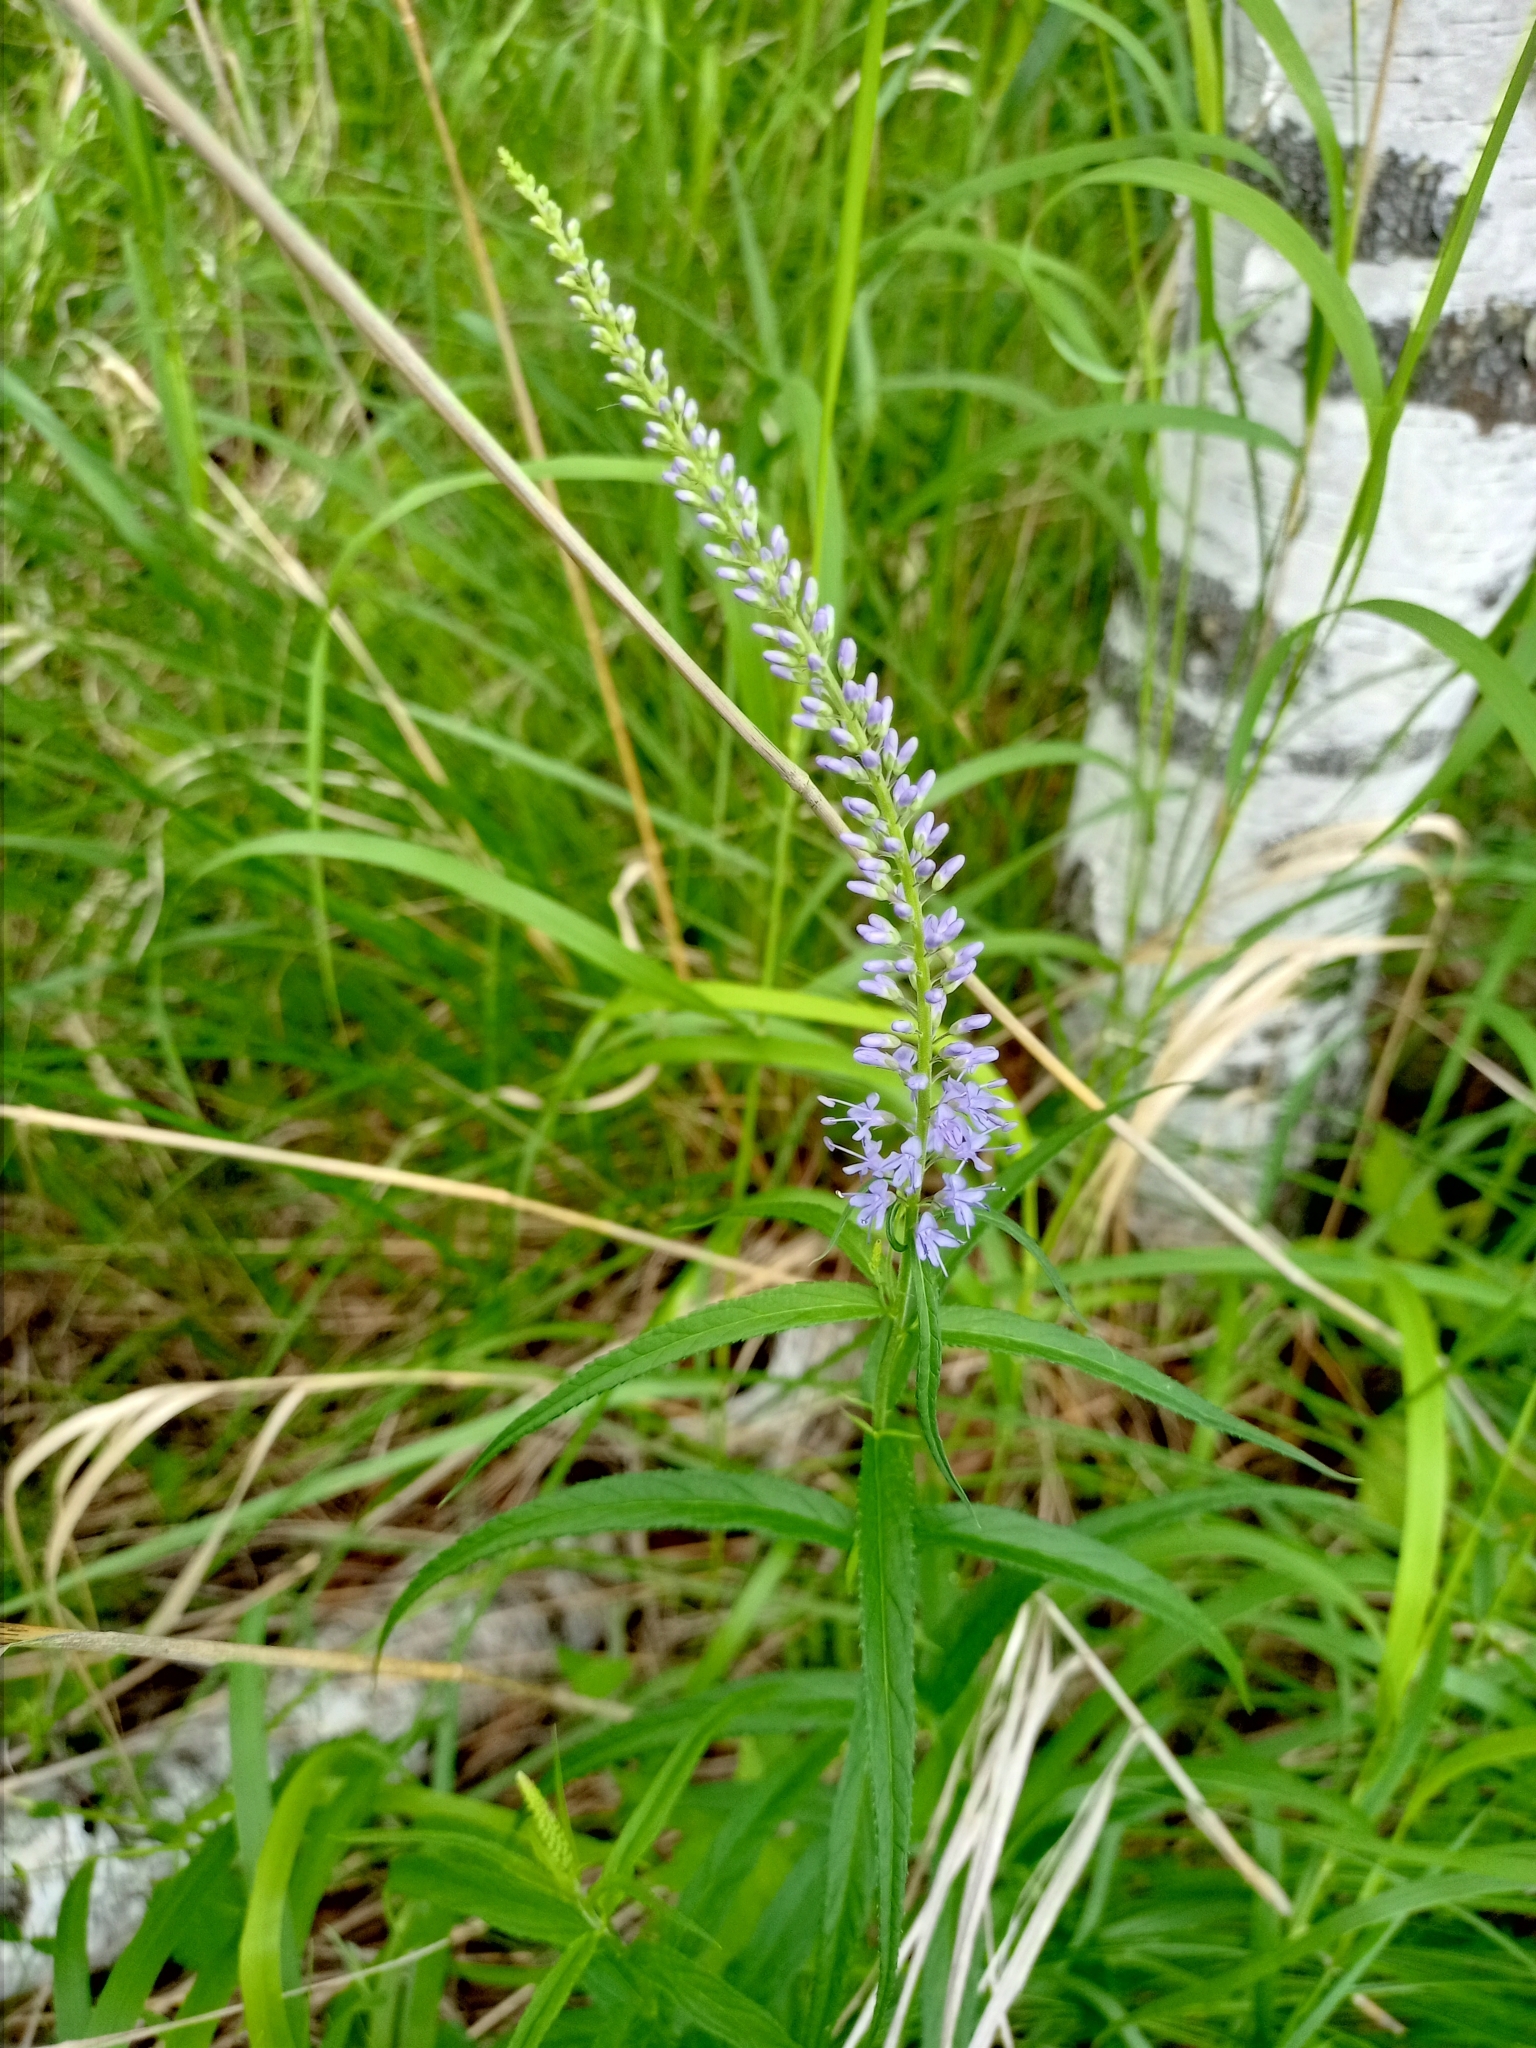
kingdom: Plantae
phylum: Tracheophyta
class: Magnoliopsida
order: Lamiales
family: Plantaginaceae
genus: Veronica
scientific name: Veronica longifolia
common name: Garden speedwell
